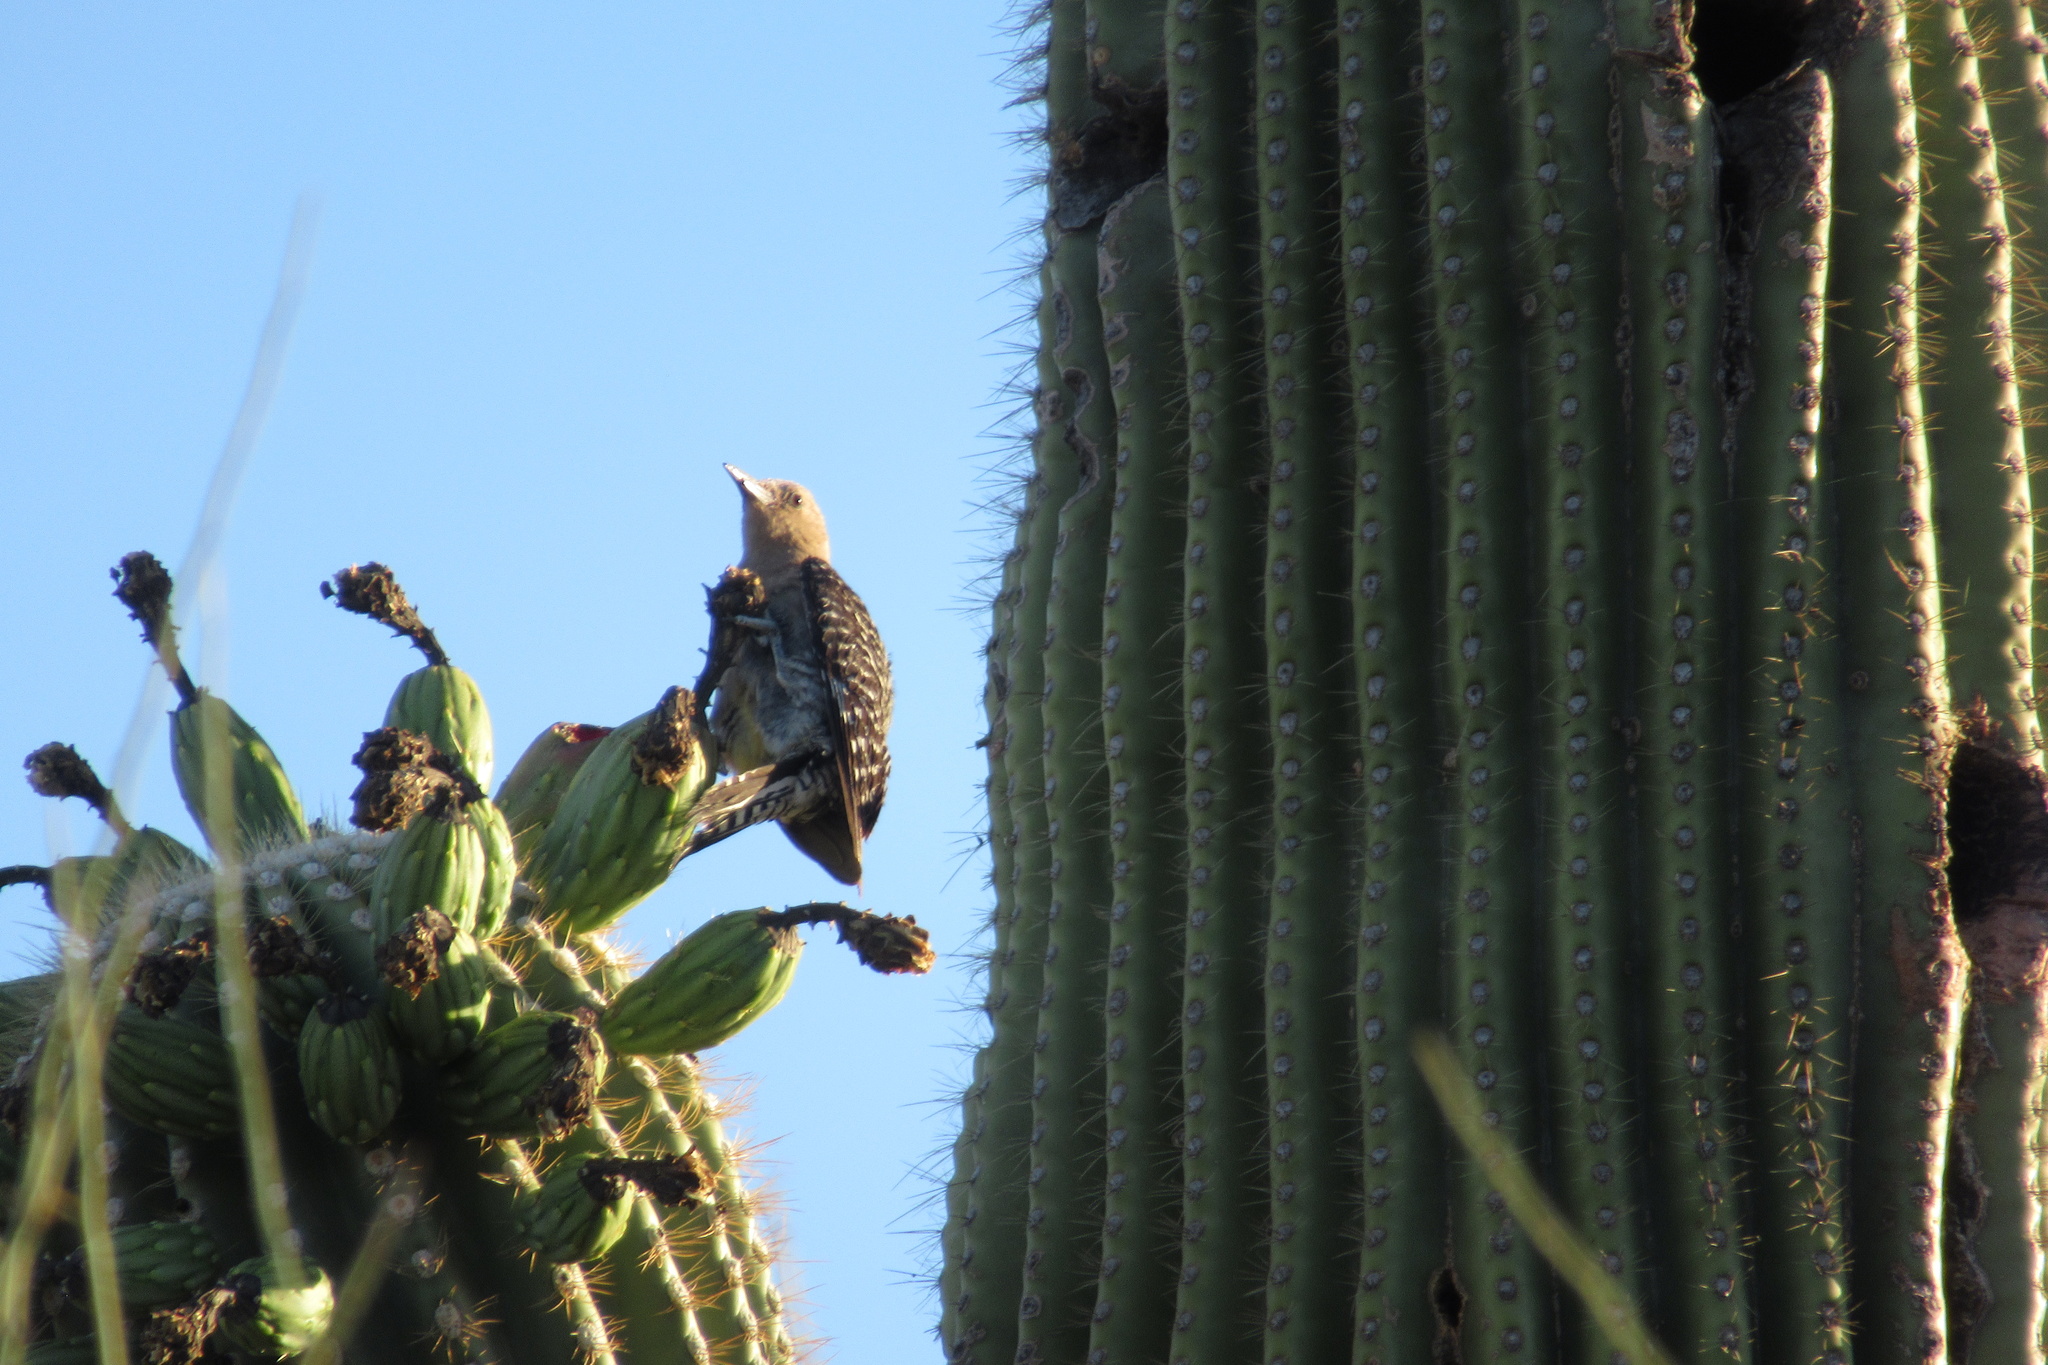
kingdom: Animalia
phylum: Chordata
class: Aves
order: Piciformes
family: Picidae
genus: Melanerpes
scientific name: Melanerpes uropygialis
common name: Gila woodpecker
